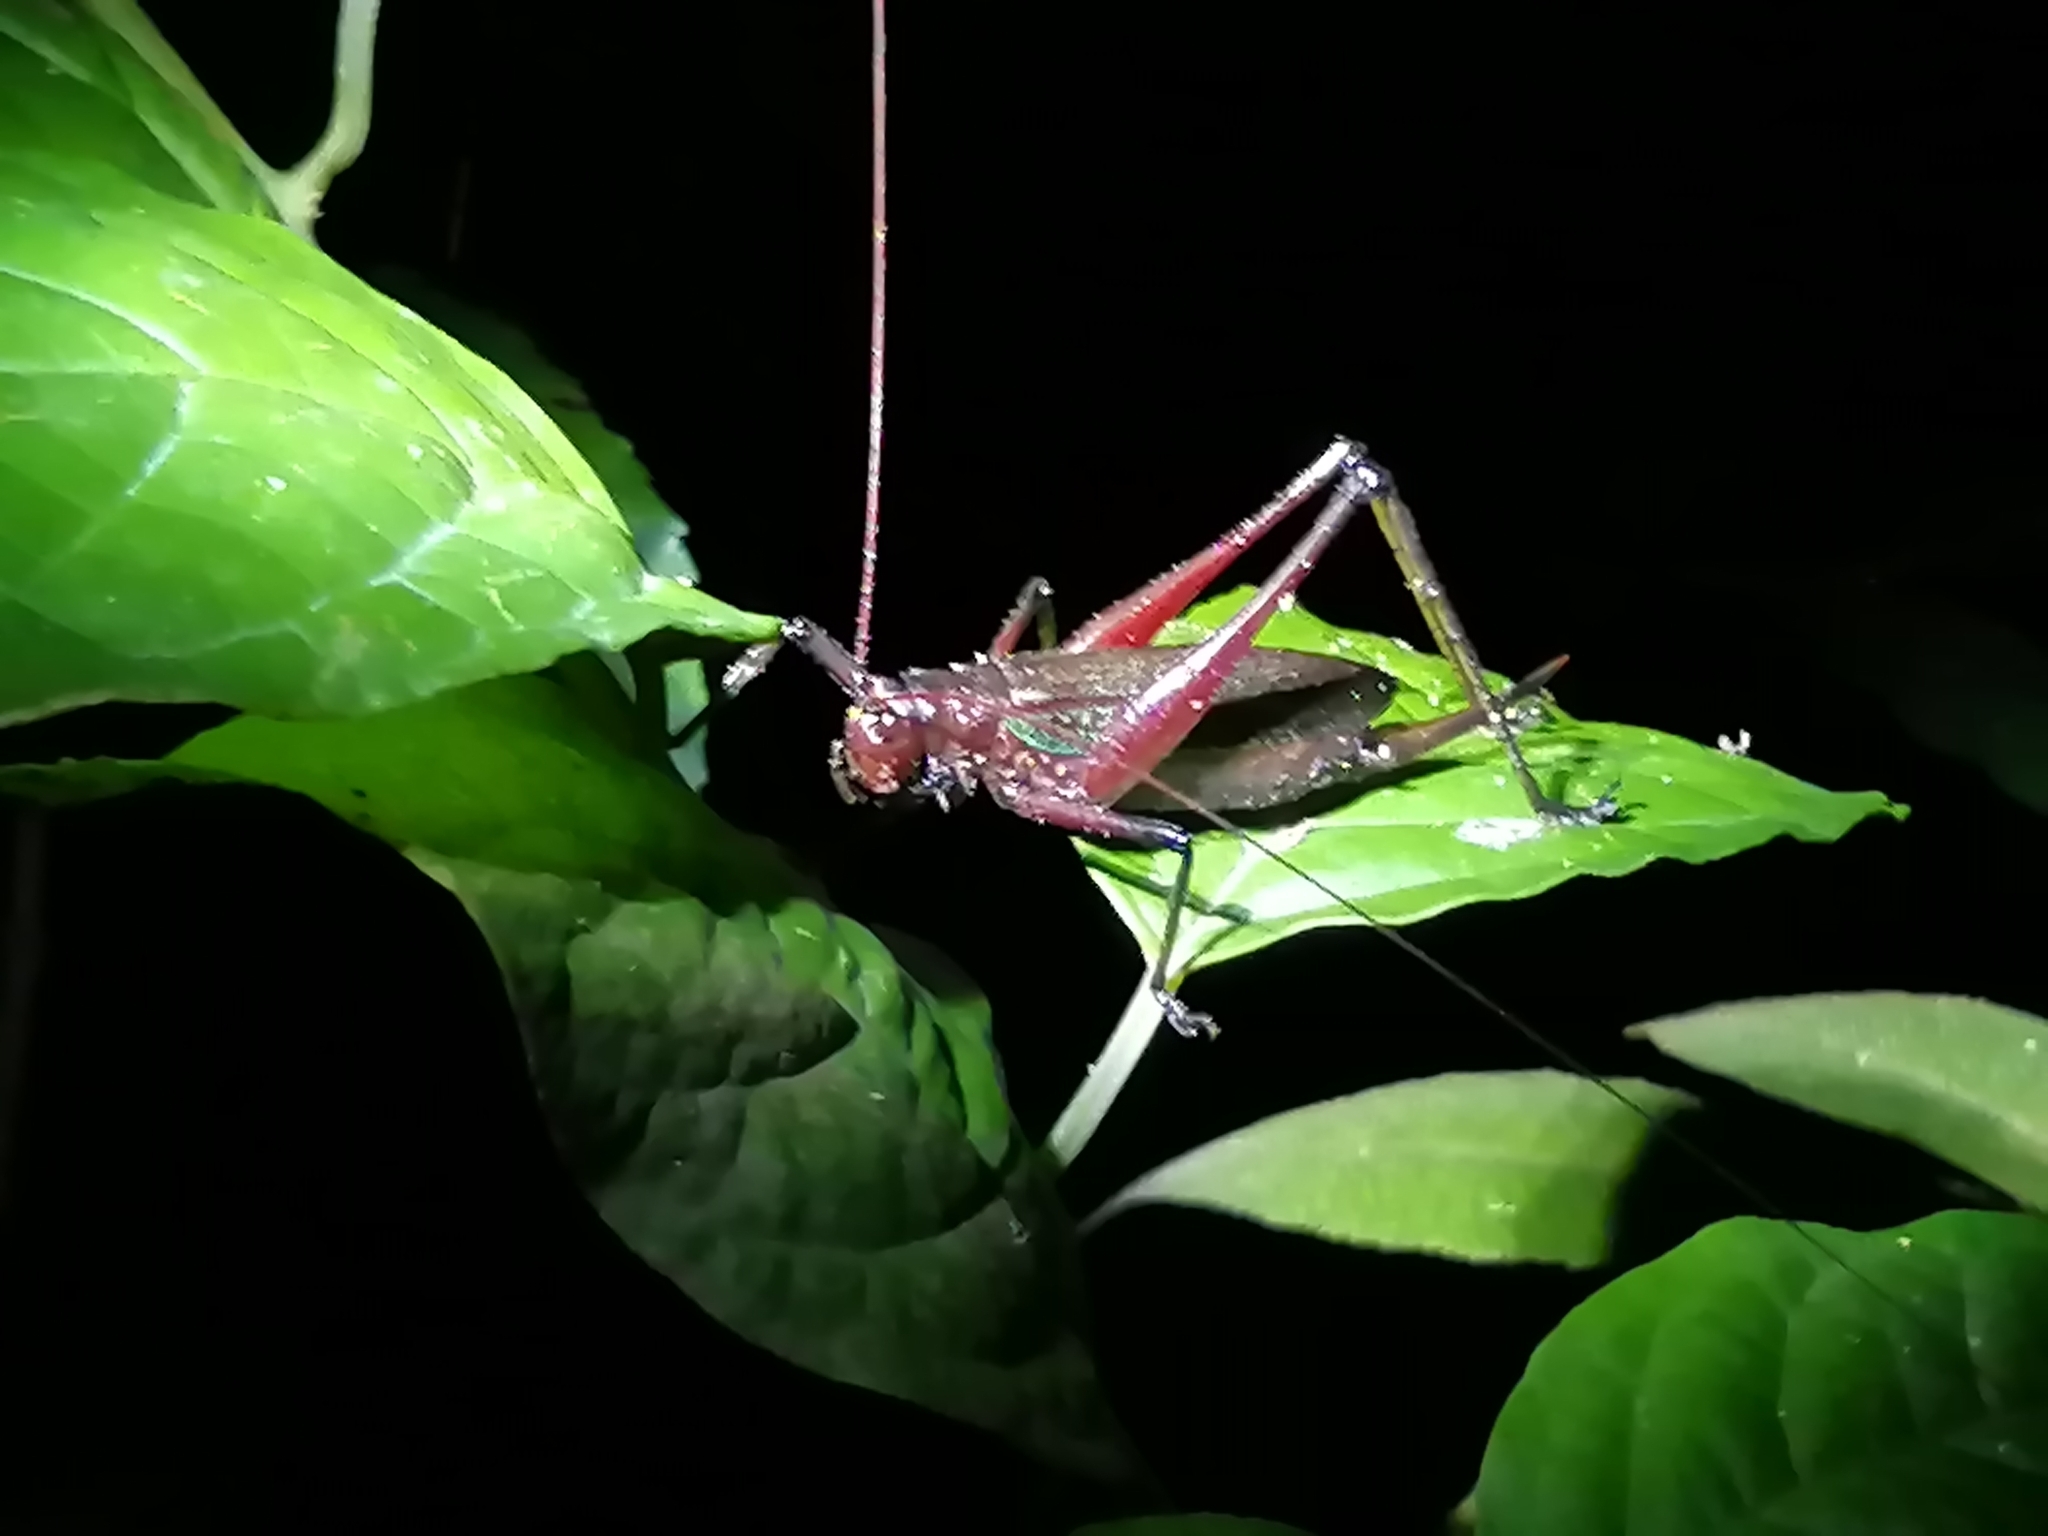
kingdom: Animalia
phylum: Arthropoda
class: Insecta
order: Orthoptera
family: Tettigoniidae
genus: Goethalsiella
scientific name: Goethalsiella tridens
